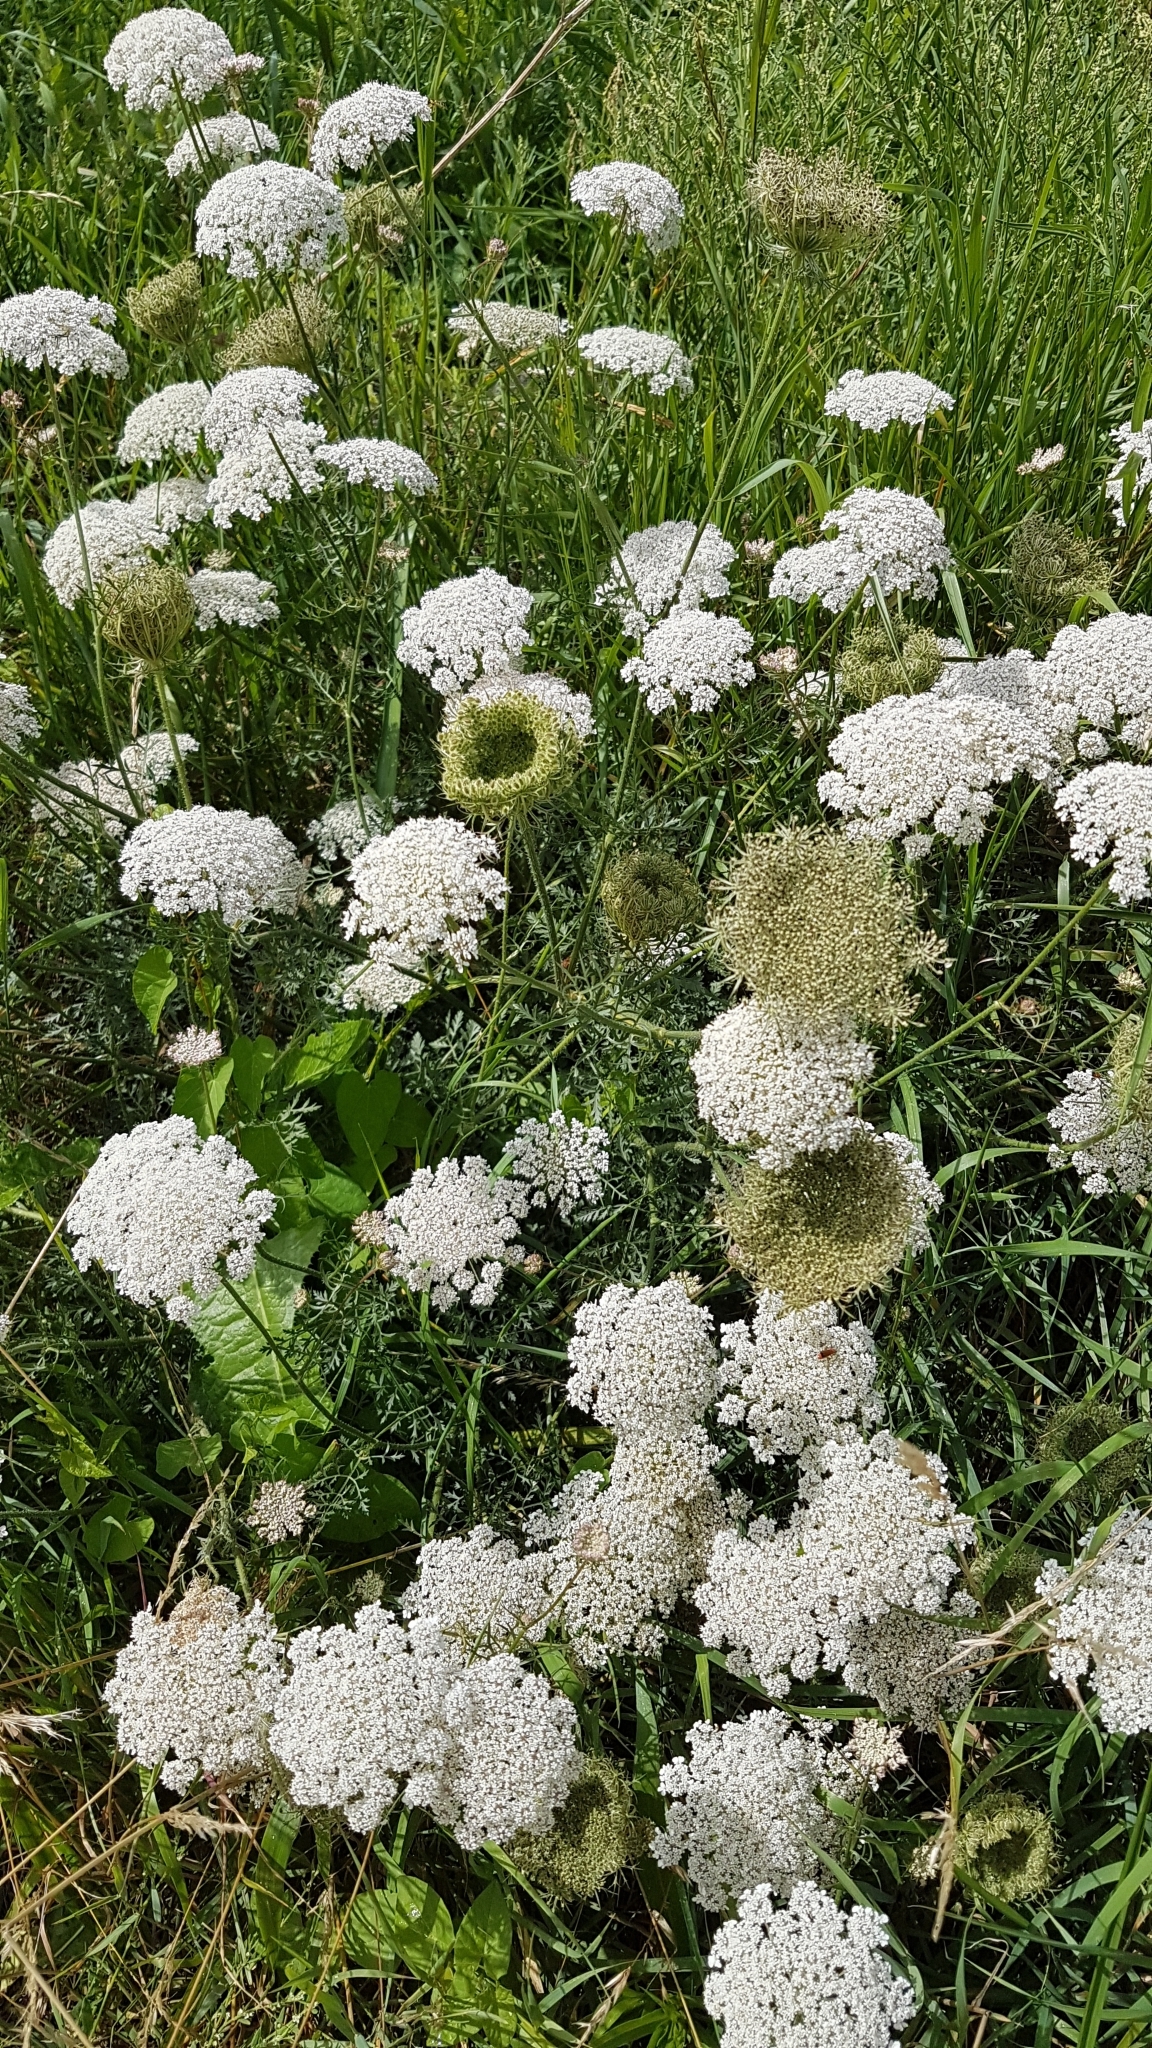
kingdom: Plantae
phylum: Tracheophyta
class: Magnoliopsida
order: Apiales
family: Apiaceae
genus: Daucus
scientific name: Daucus carota
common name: Wild carrot
